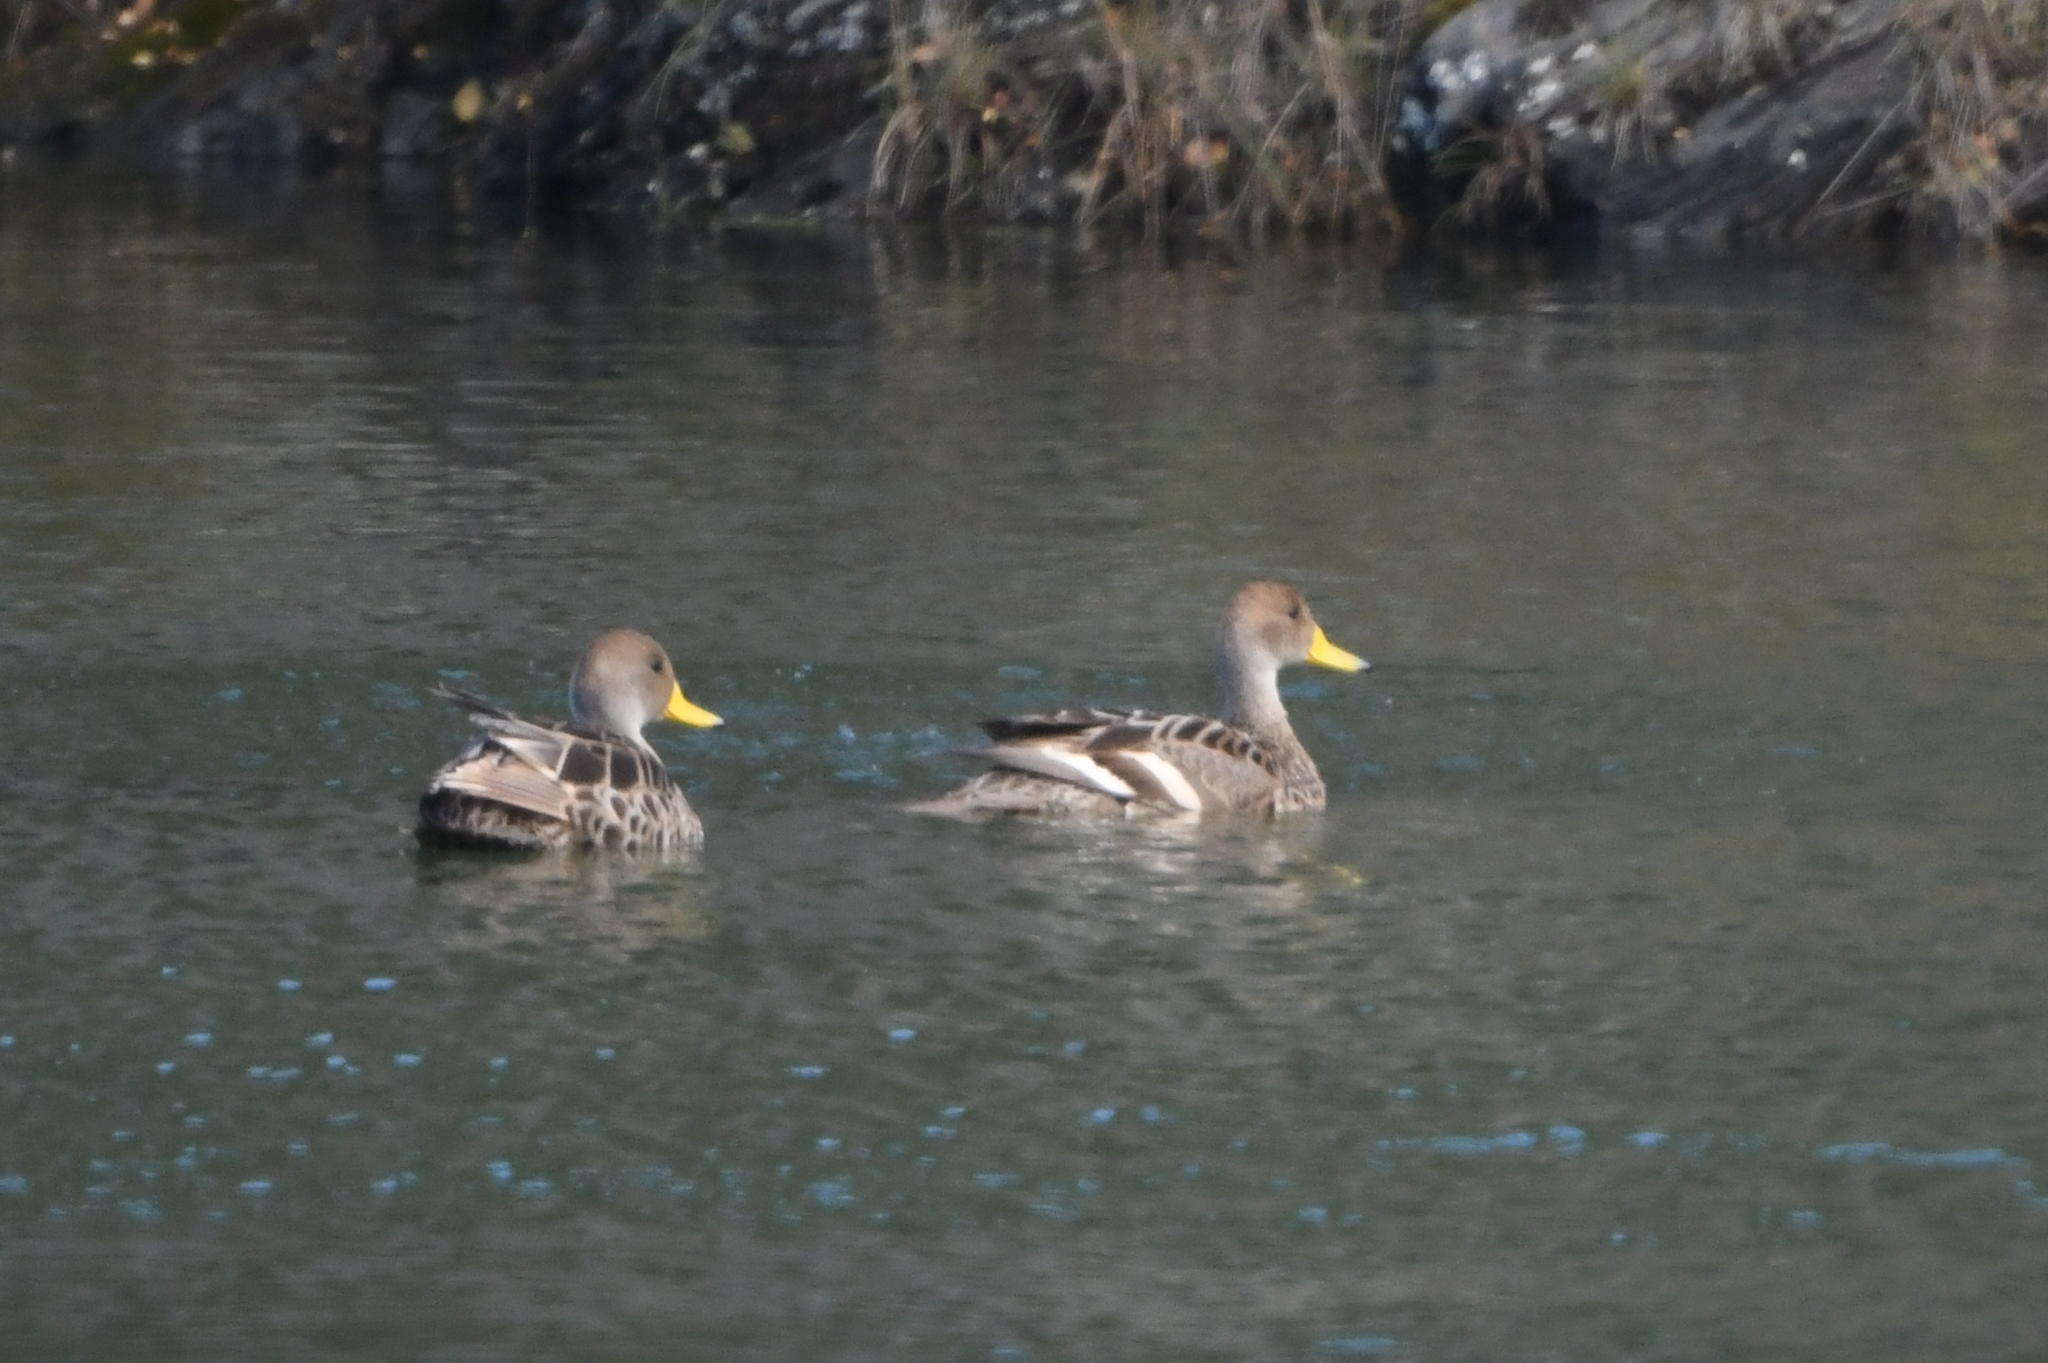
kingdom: Animalia
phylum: Chordata
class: Aves
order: Anseriformes
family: Anatidae
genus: Anas
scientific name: Anas georgica
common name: Yellow-billed pintail
